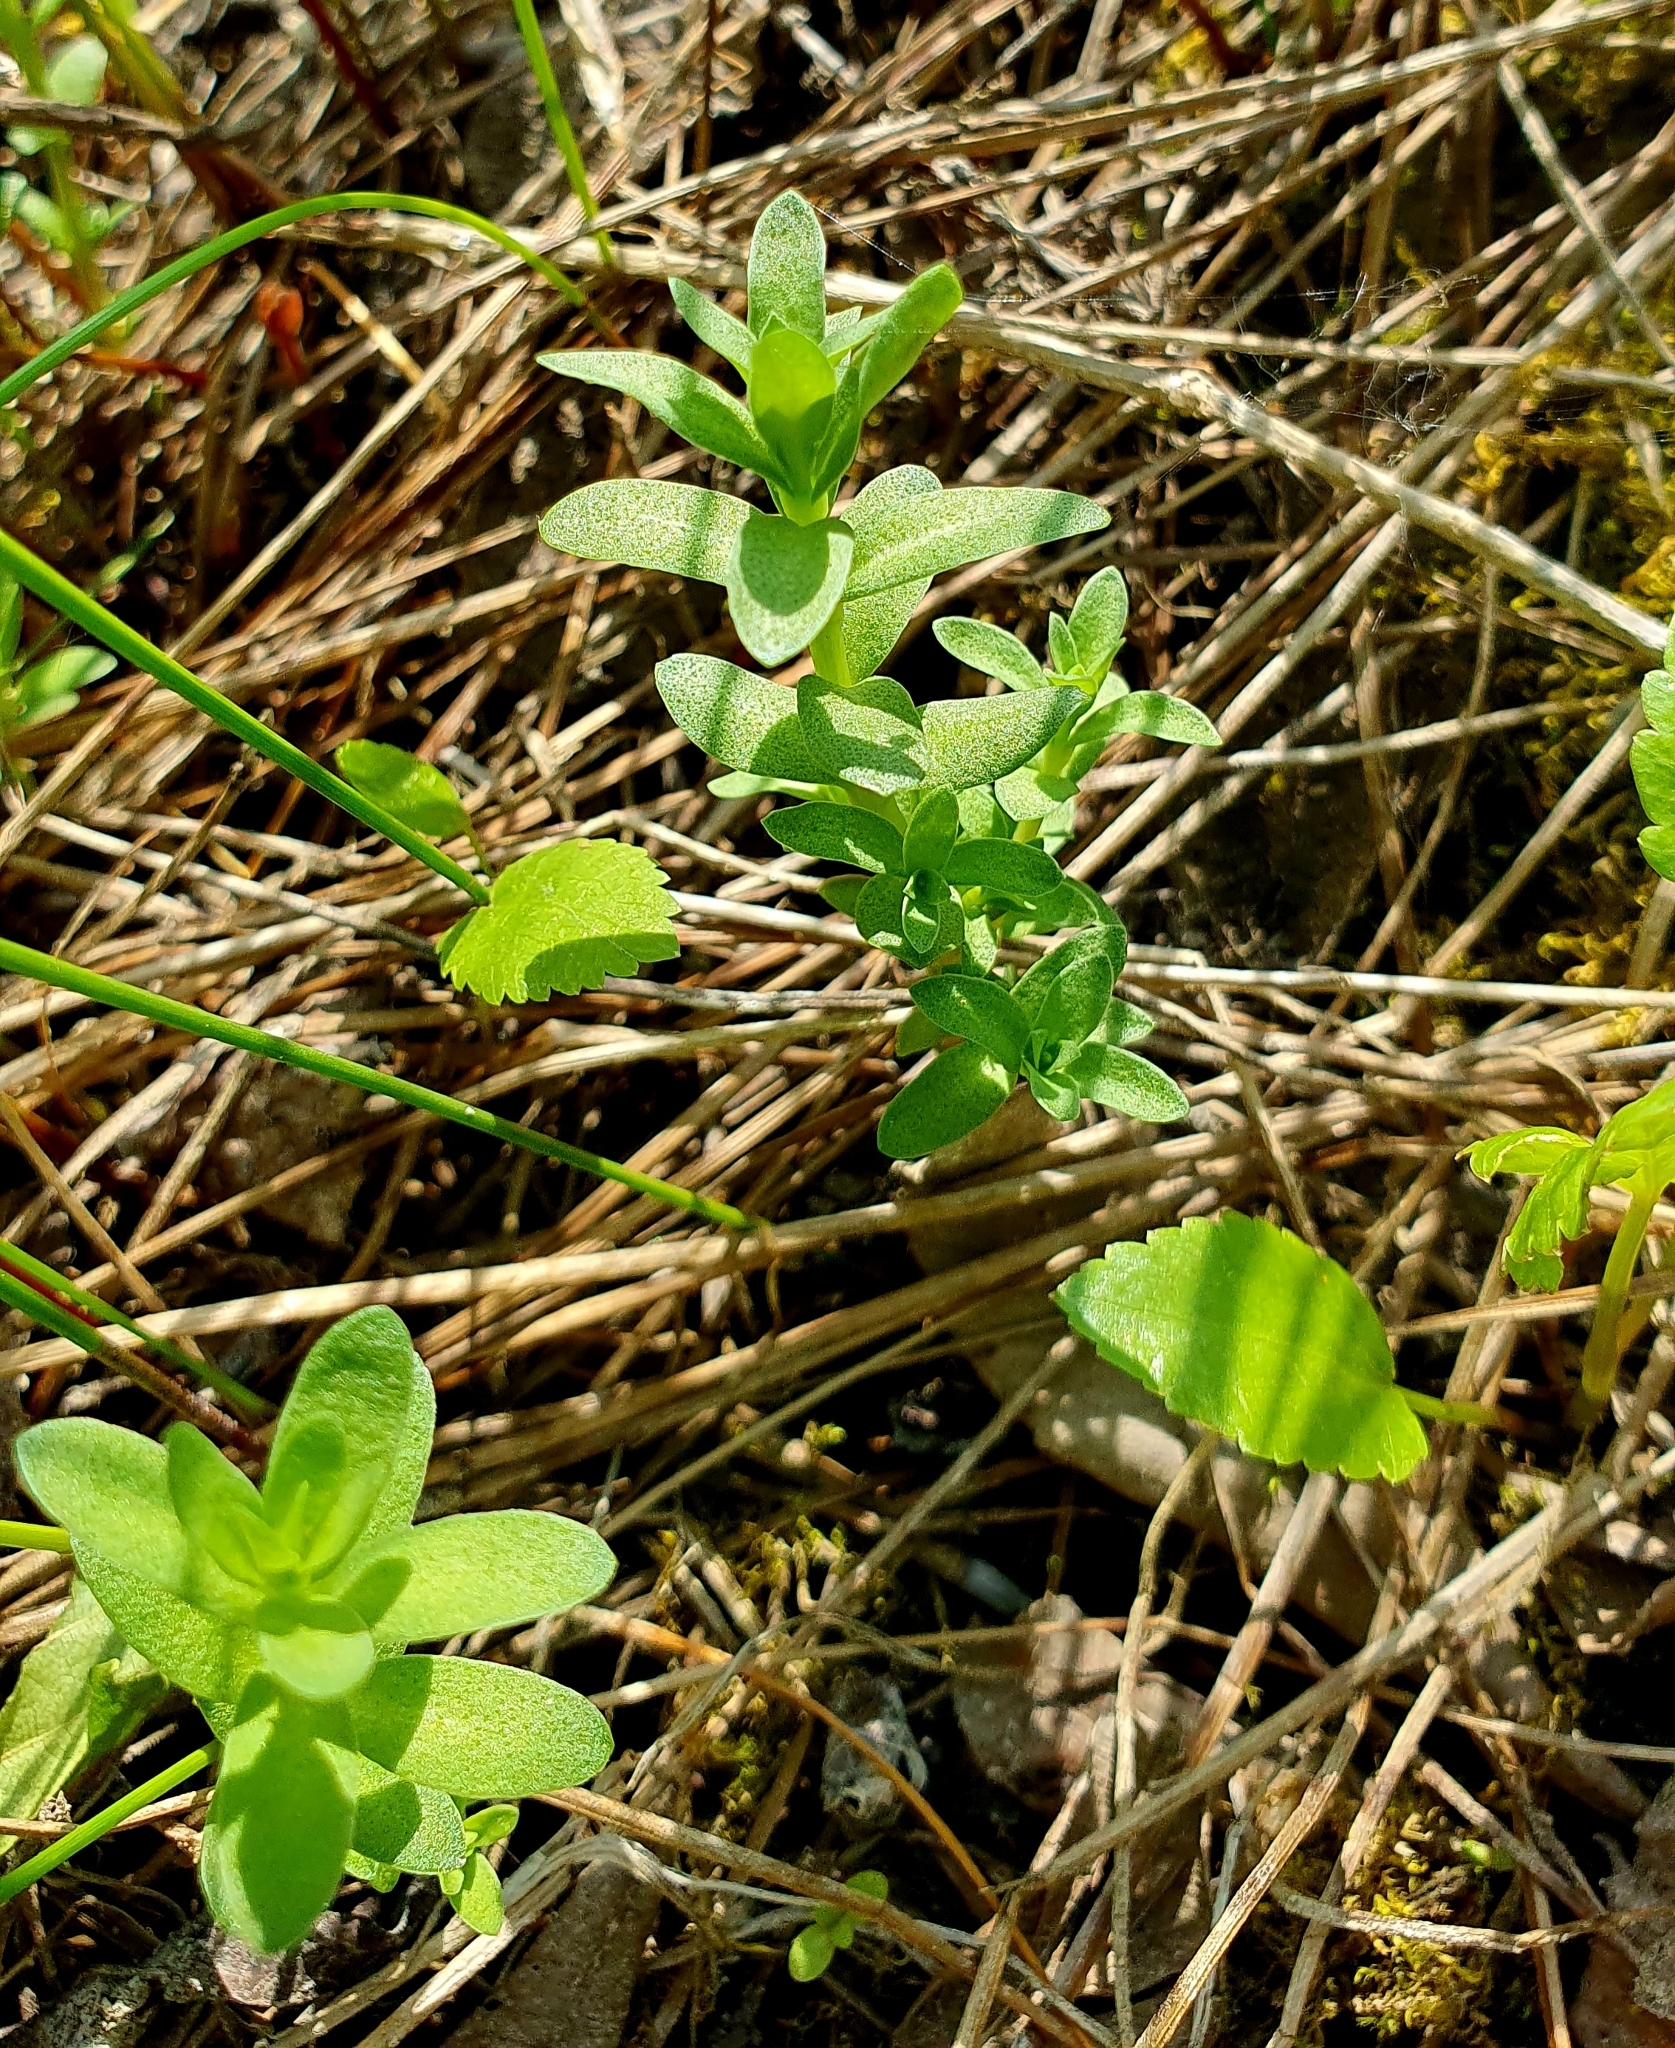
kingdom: Plantae
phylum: Tracheophyta
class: Magnoliopsida
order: Ericales
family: Primulaceae
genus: Lysimachia
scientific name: Lysimachia maritima
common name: Sea milkwort
